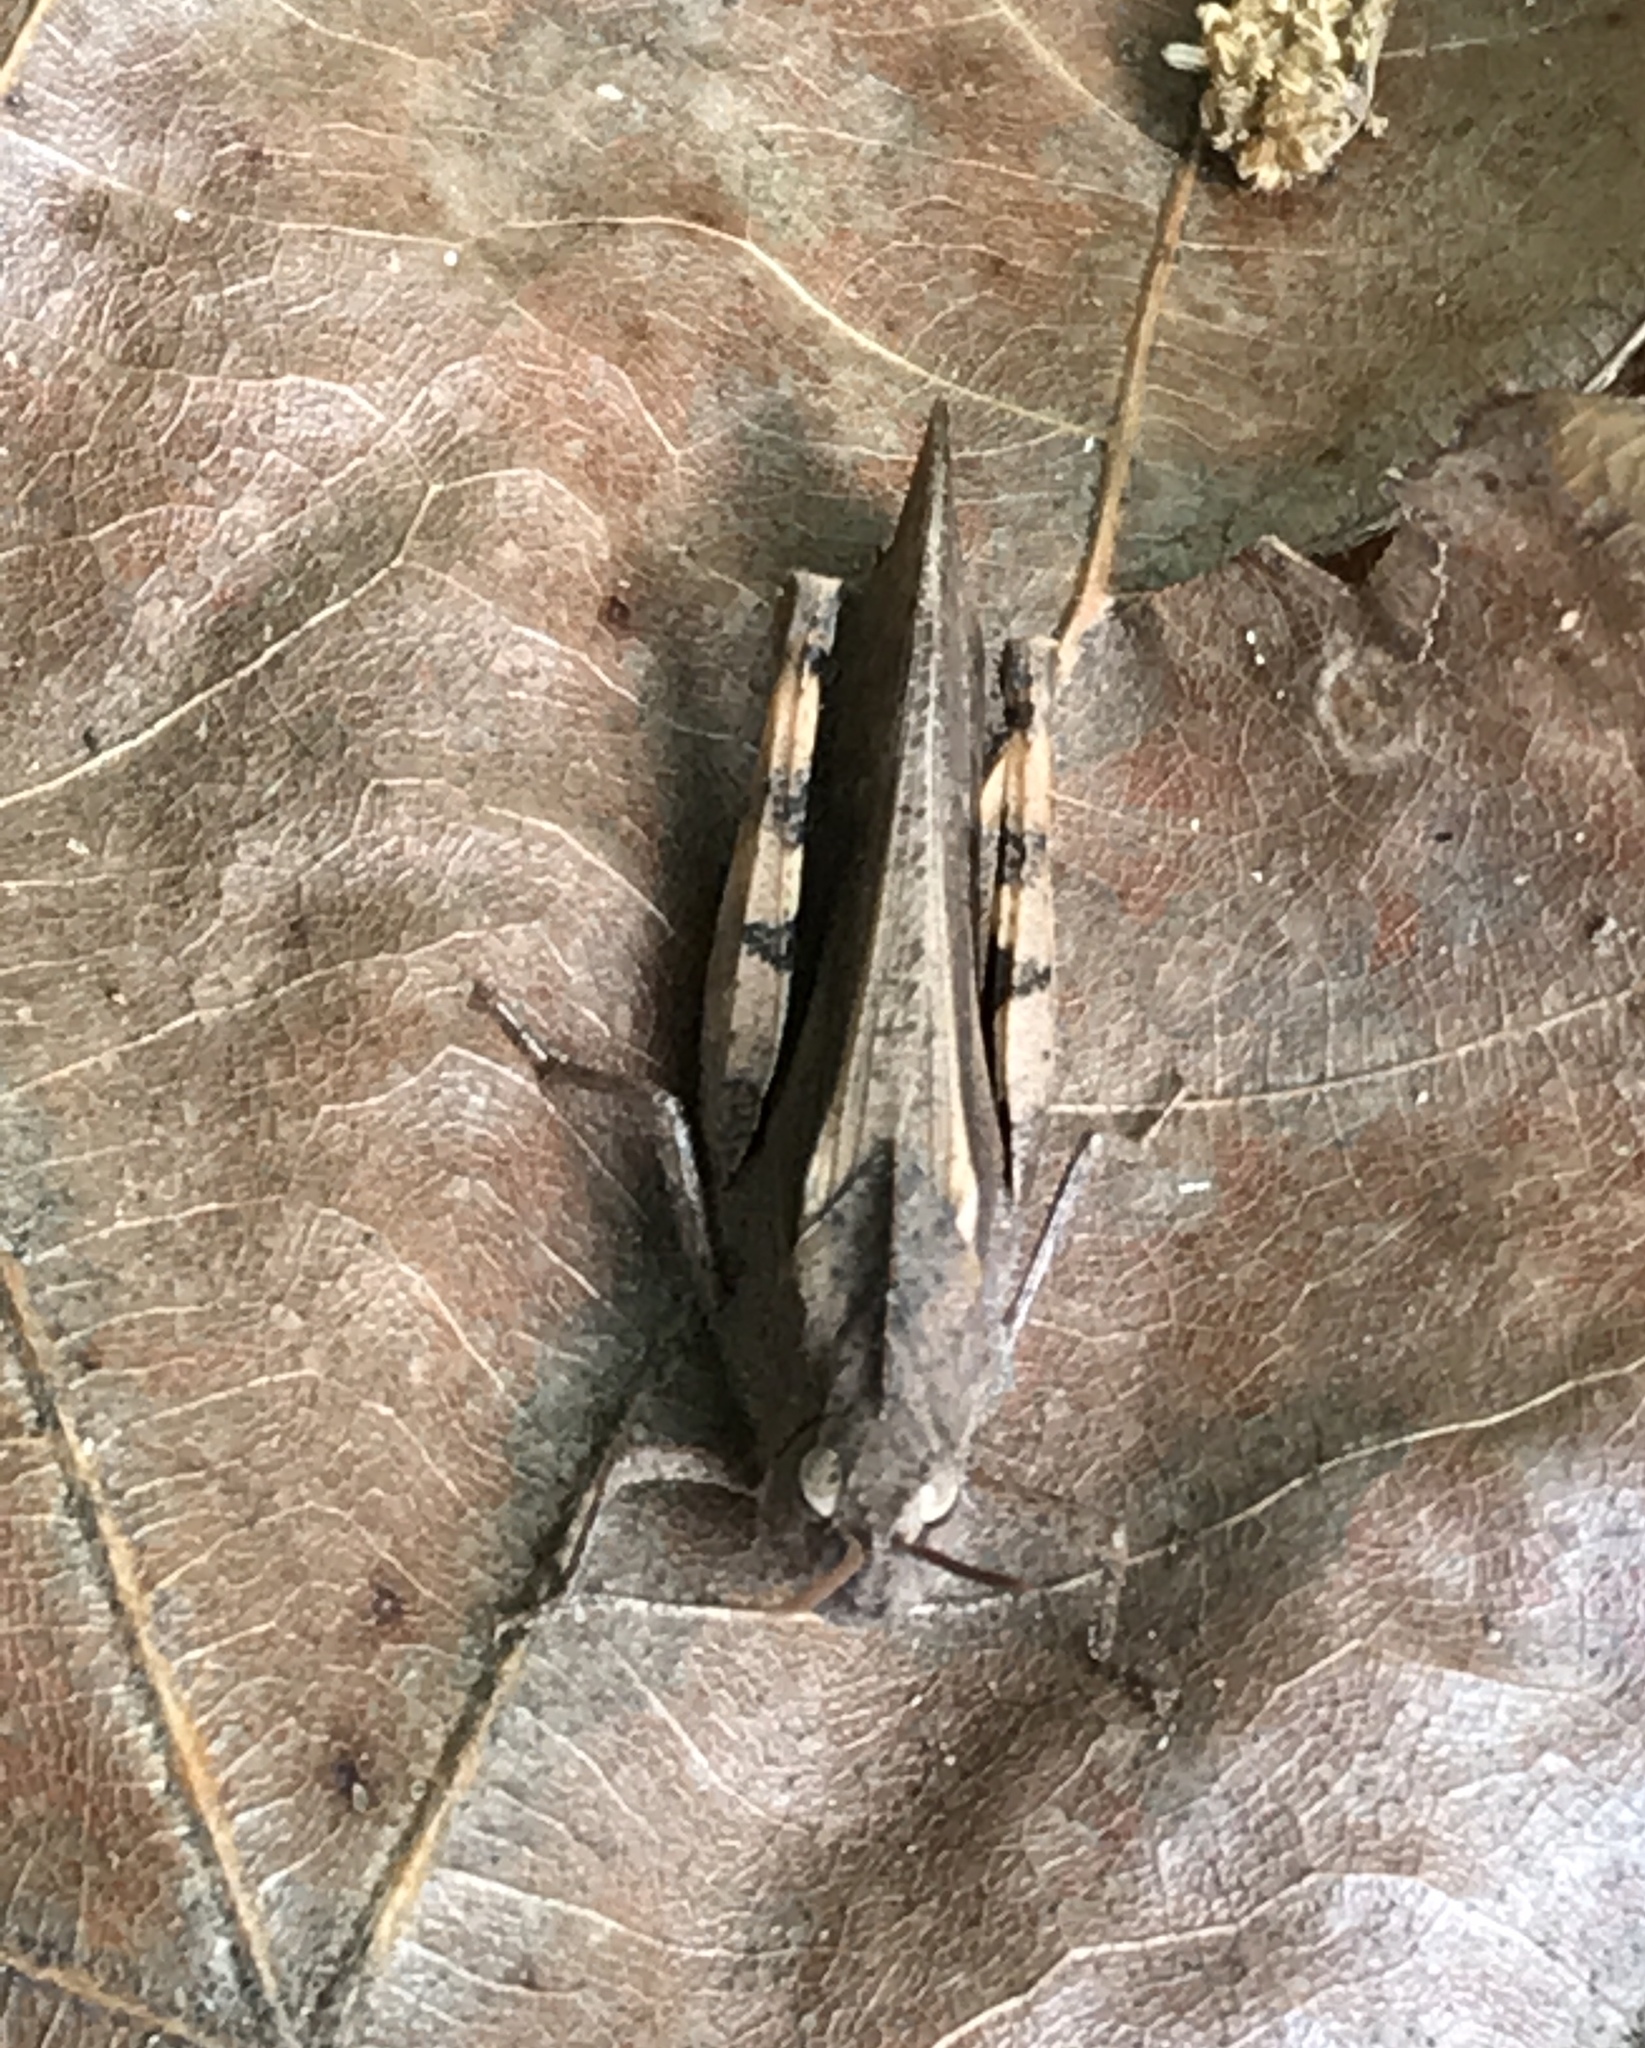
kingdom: Animalia
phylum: Arthropoda
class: Insecta
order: Orthoptera
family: Acrididae
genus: Chortophaga
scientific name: Chortophaga viridifasciata
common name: Green-striped grasshopper
